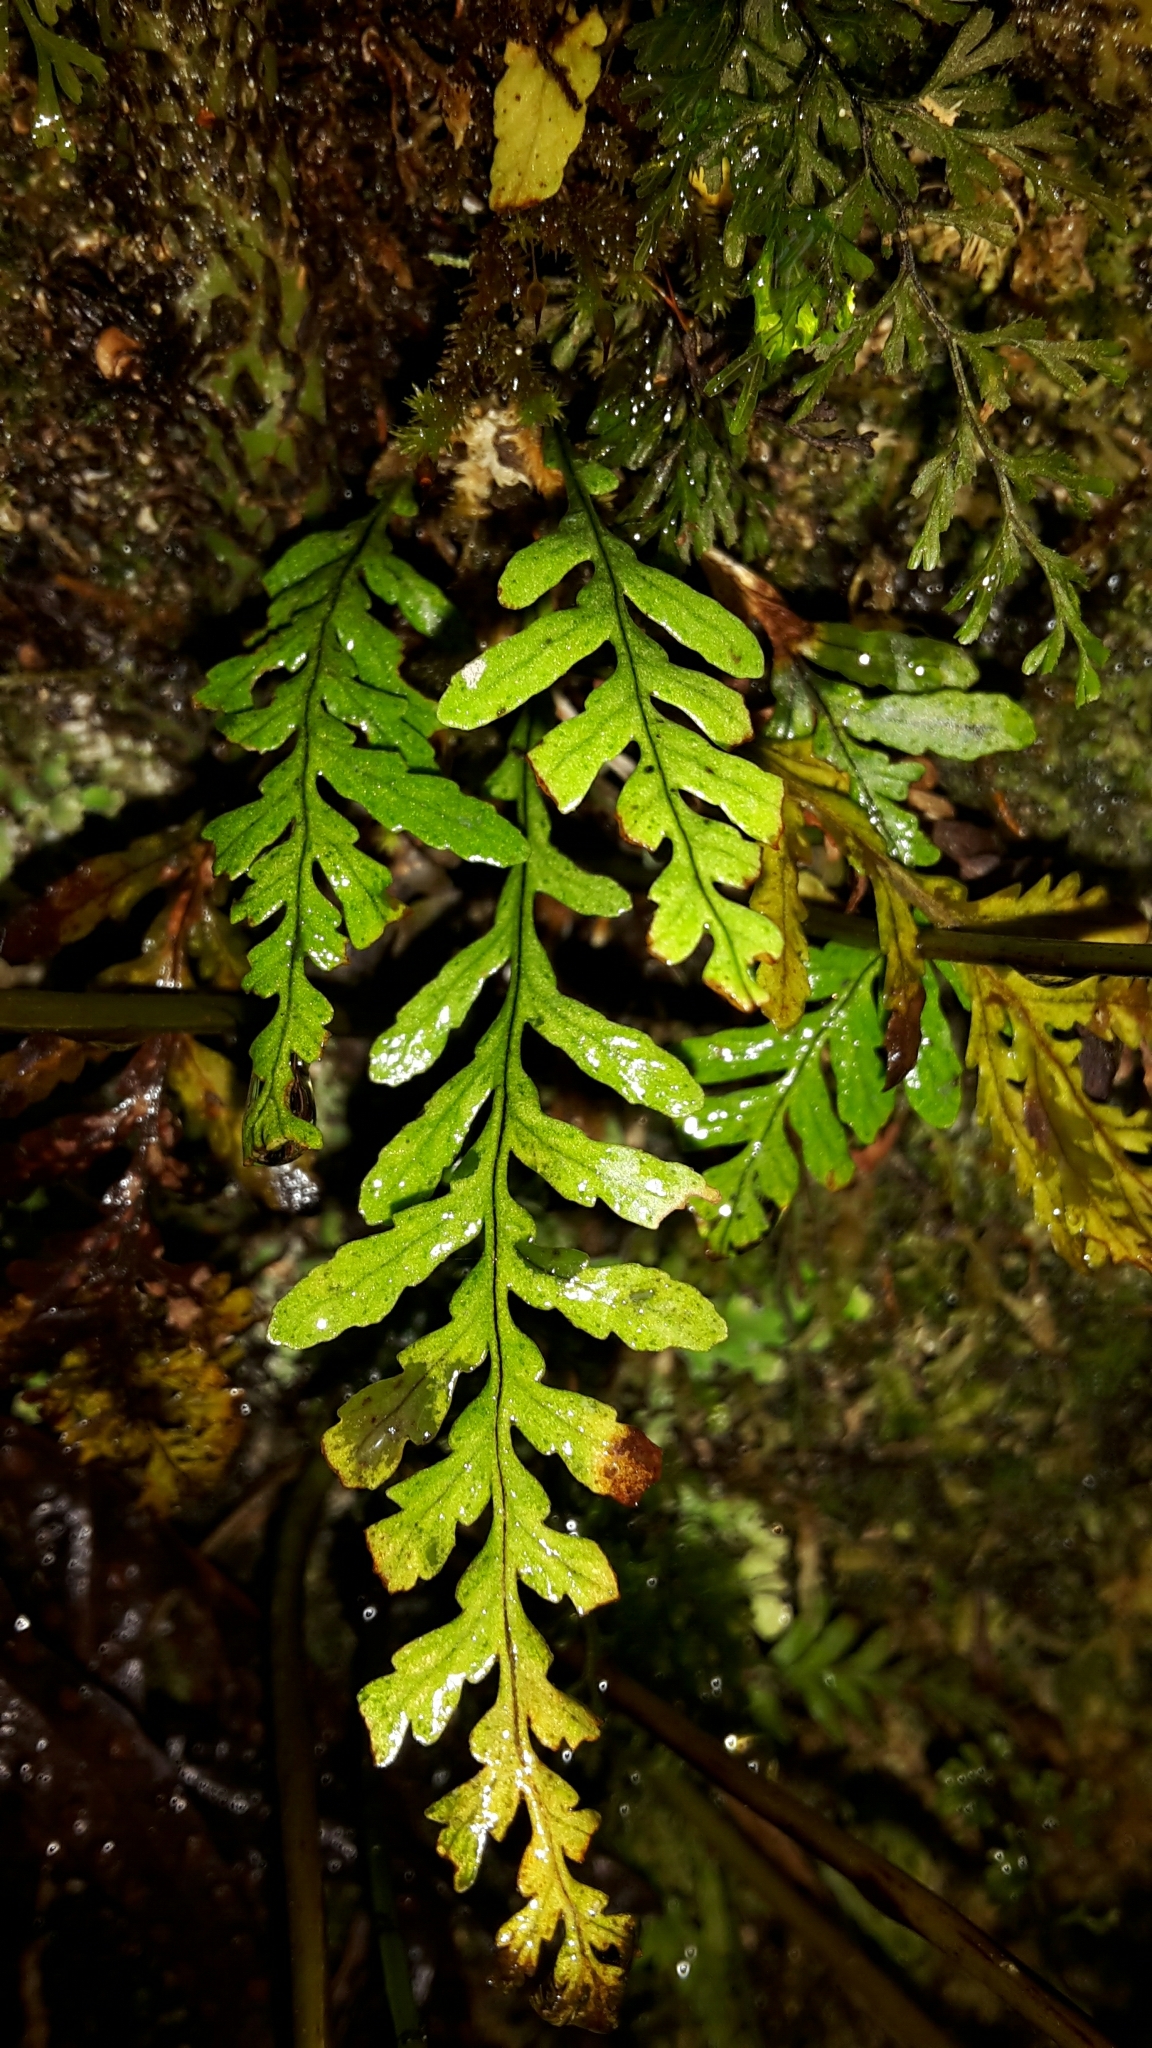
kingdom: Plantae
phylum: Tracheophyta
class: Polypodiopsida
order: Polypodiales
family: Polypodiaceae
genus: Notogrammitis
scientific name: Notogrammitis heterophylla
